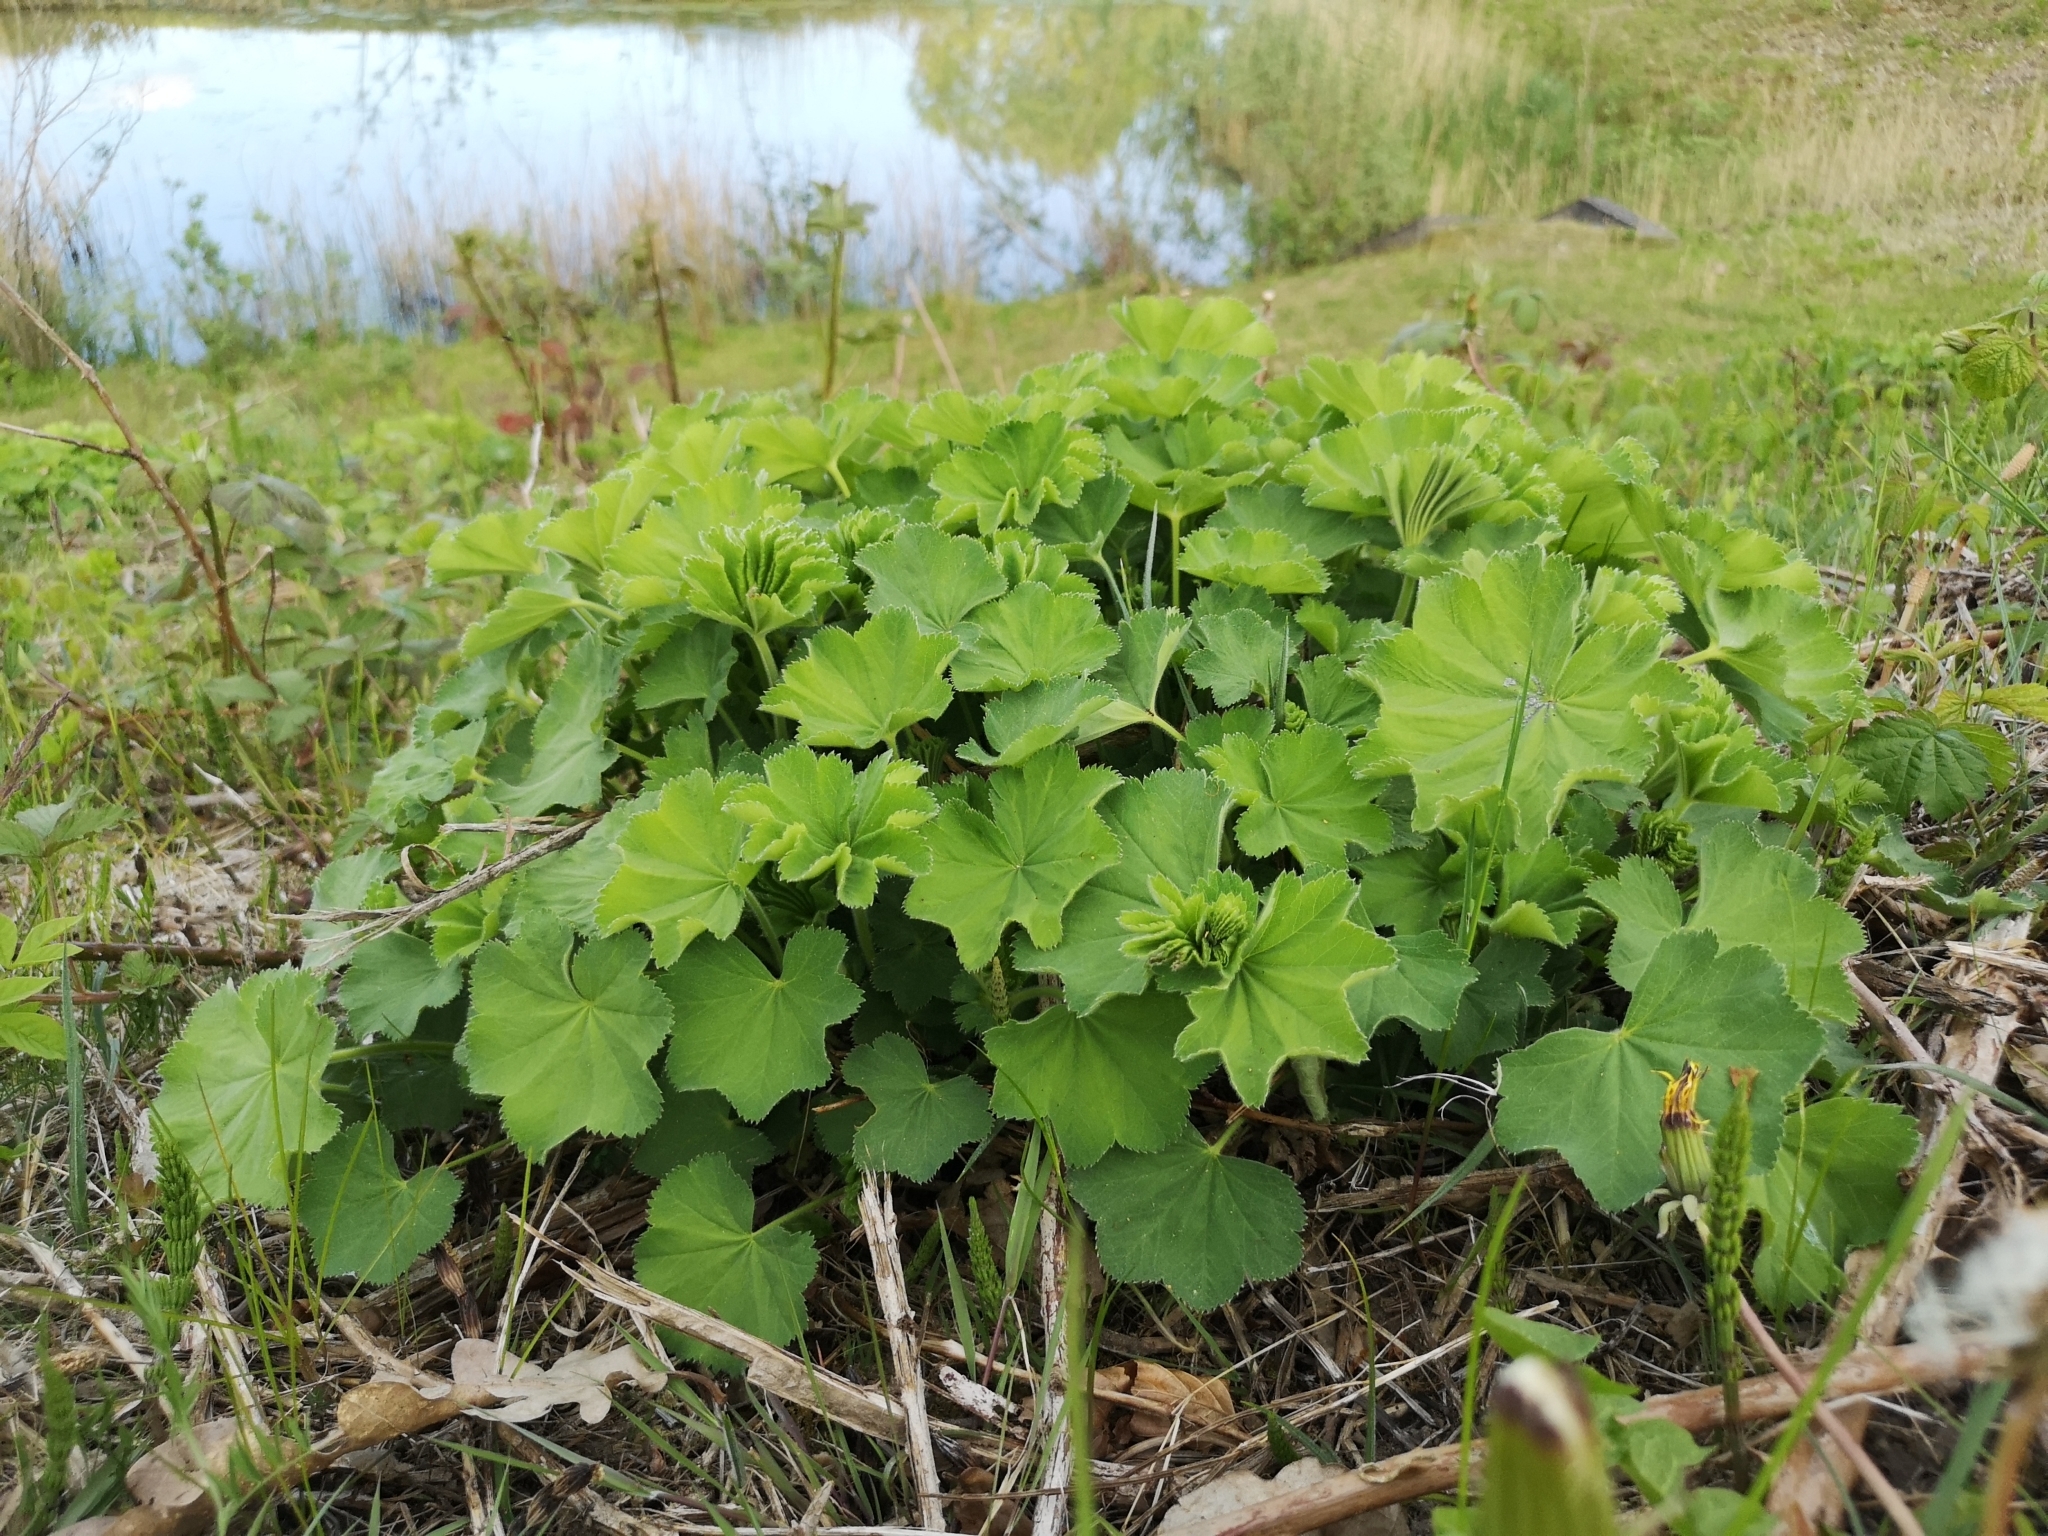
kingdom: Plantae
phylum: Tracheophyta
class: Magnoliopsida
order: Rosales
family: Rosaceae
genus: Alchemilla
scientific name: Alchemilla mollis
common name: Lady's-mantle
